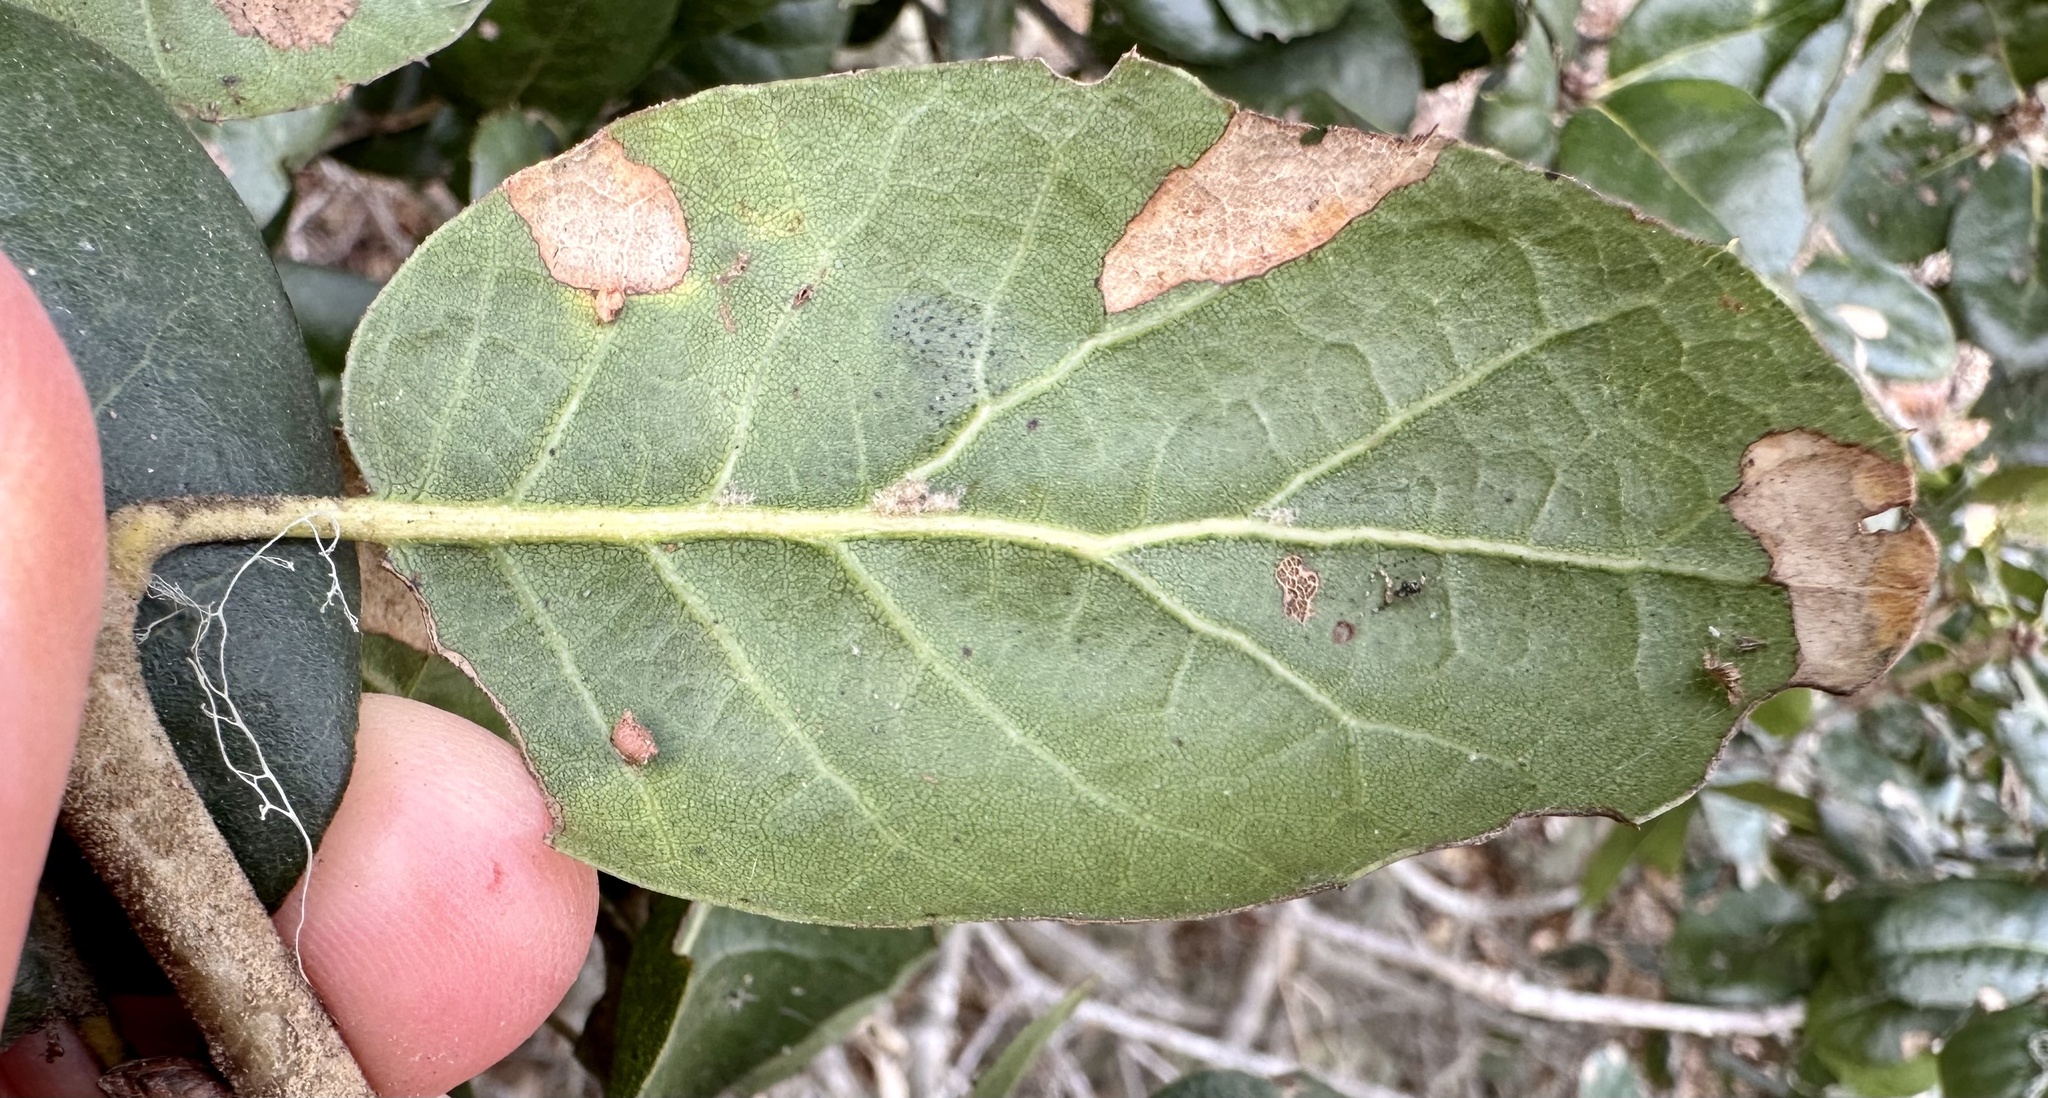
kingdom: Animalia
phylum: Arthropoda
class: Insecta
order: Hymenoptera
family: Cynipidae
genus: Dryocosmus
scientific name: Dryocosmus
